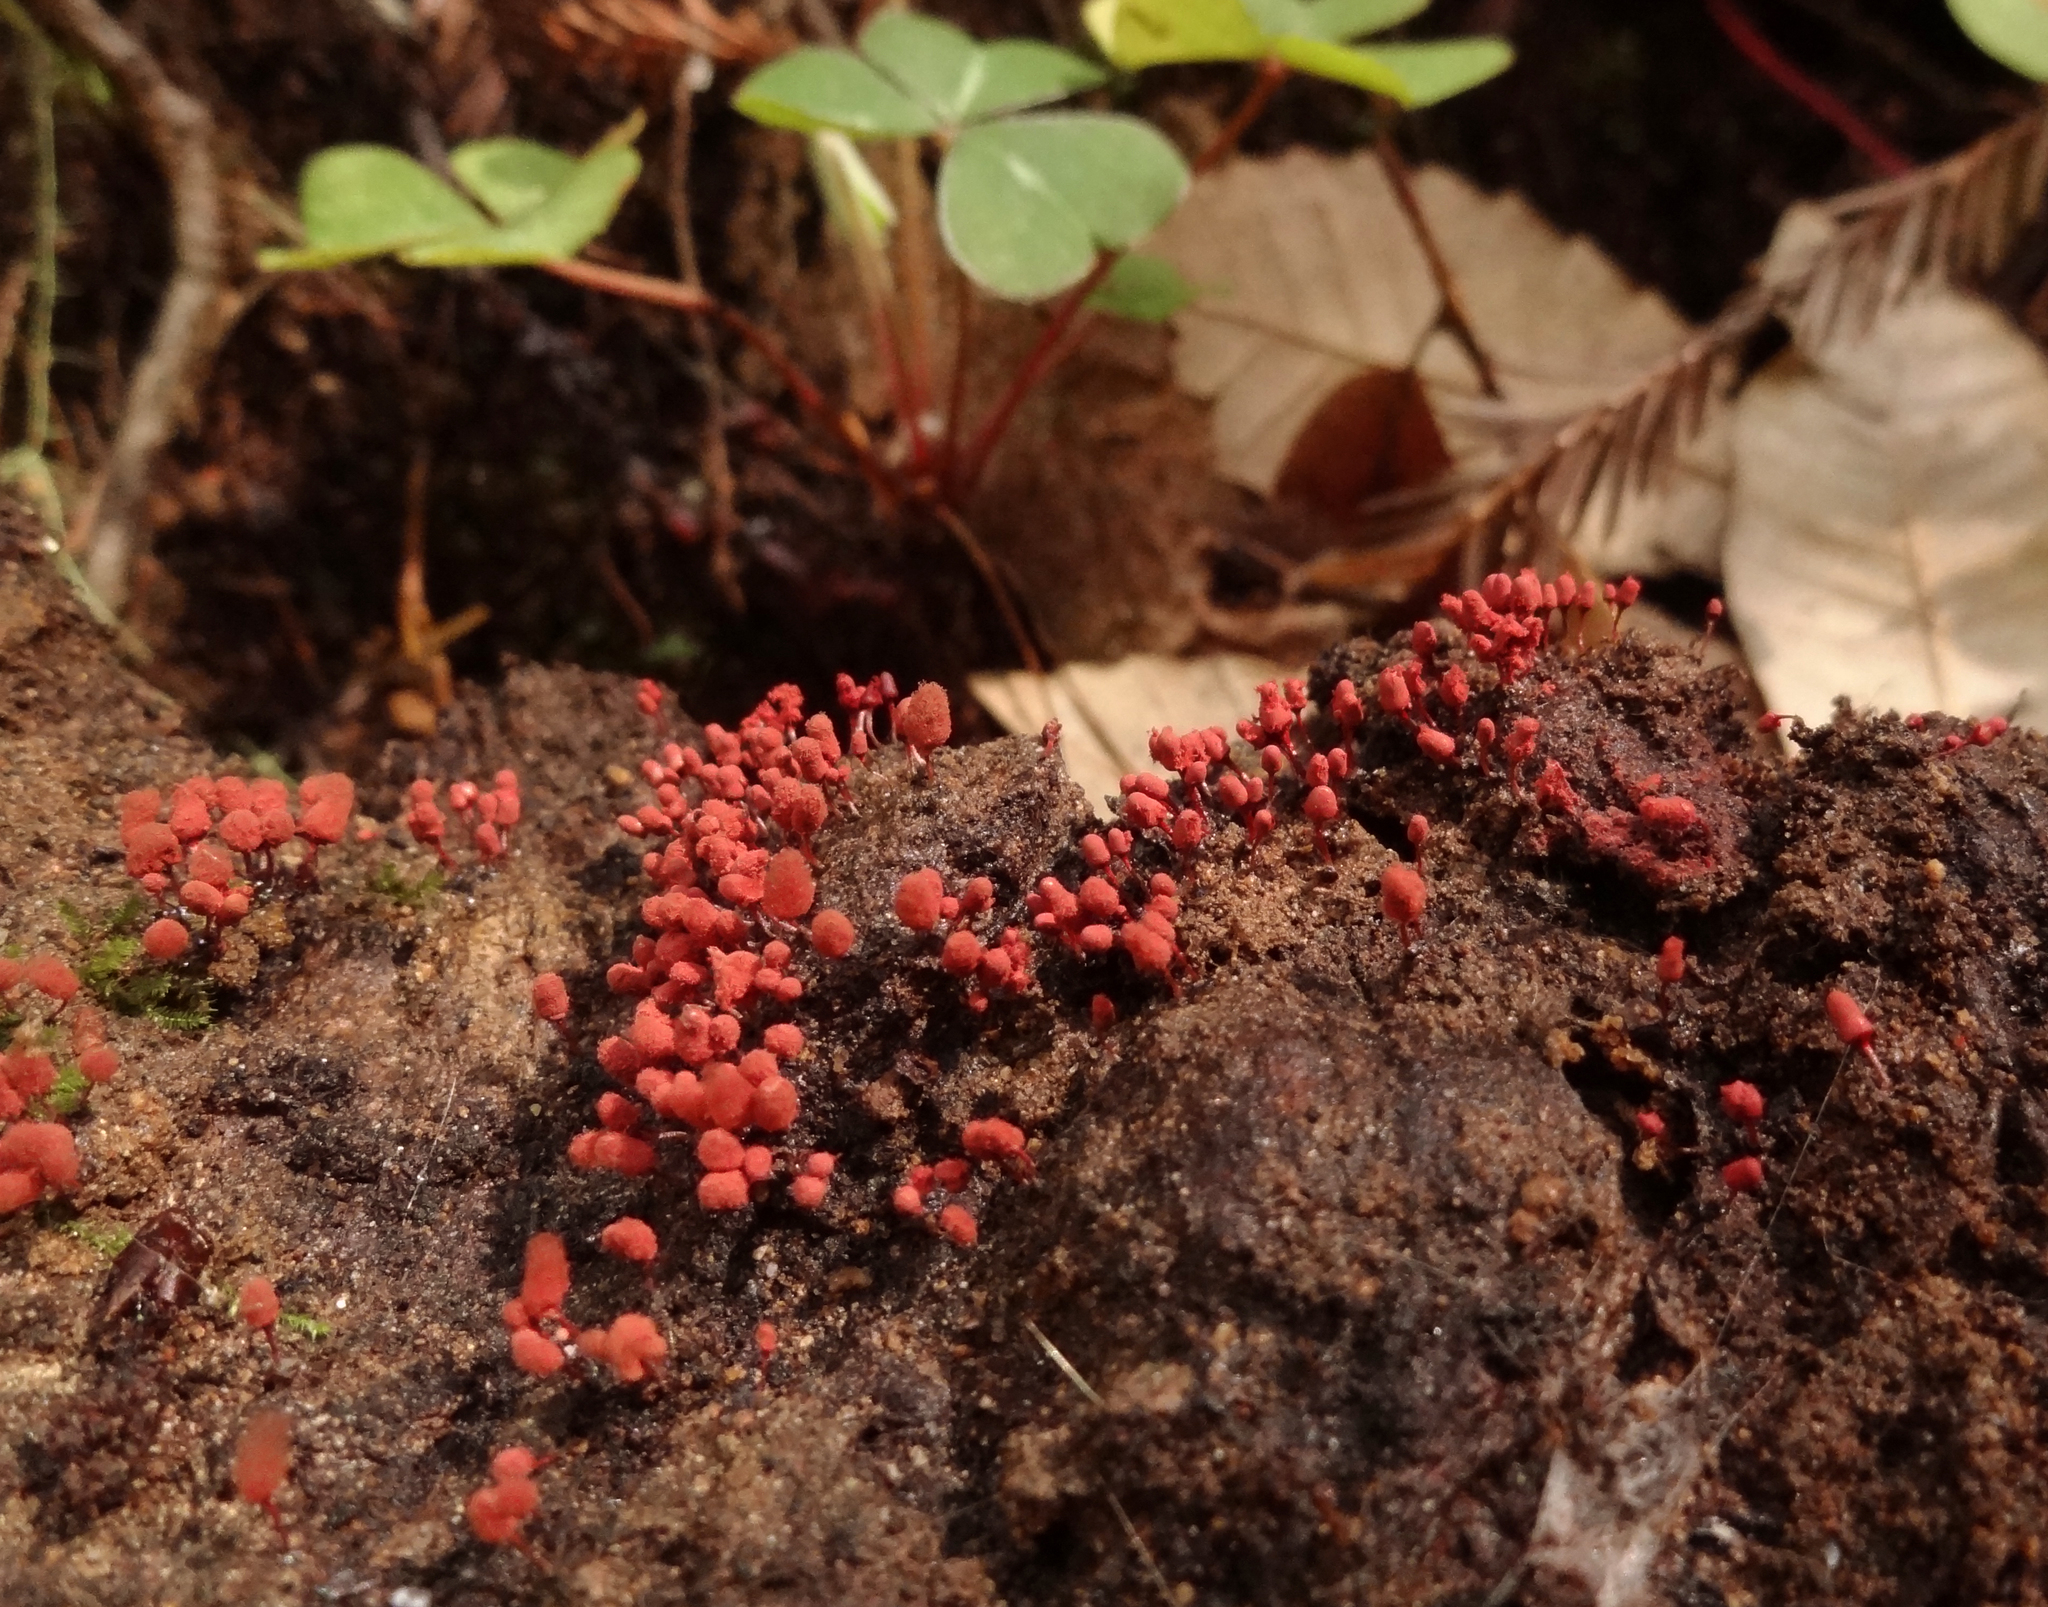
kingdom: Protozoa
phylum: Mycetozoa
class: Myxomycetes
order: Trichiales
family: Arcyriaceae
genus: Arcyria
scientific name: Arcyria denudata
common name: Carnival candy slime mold
